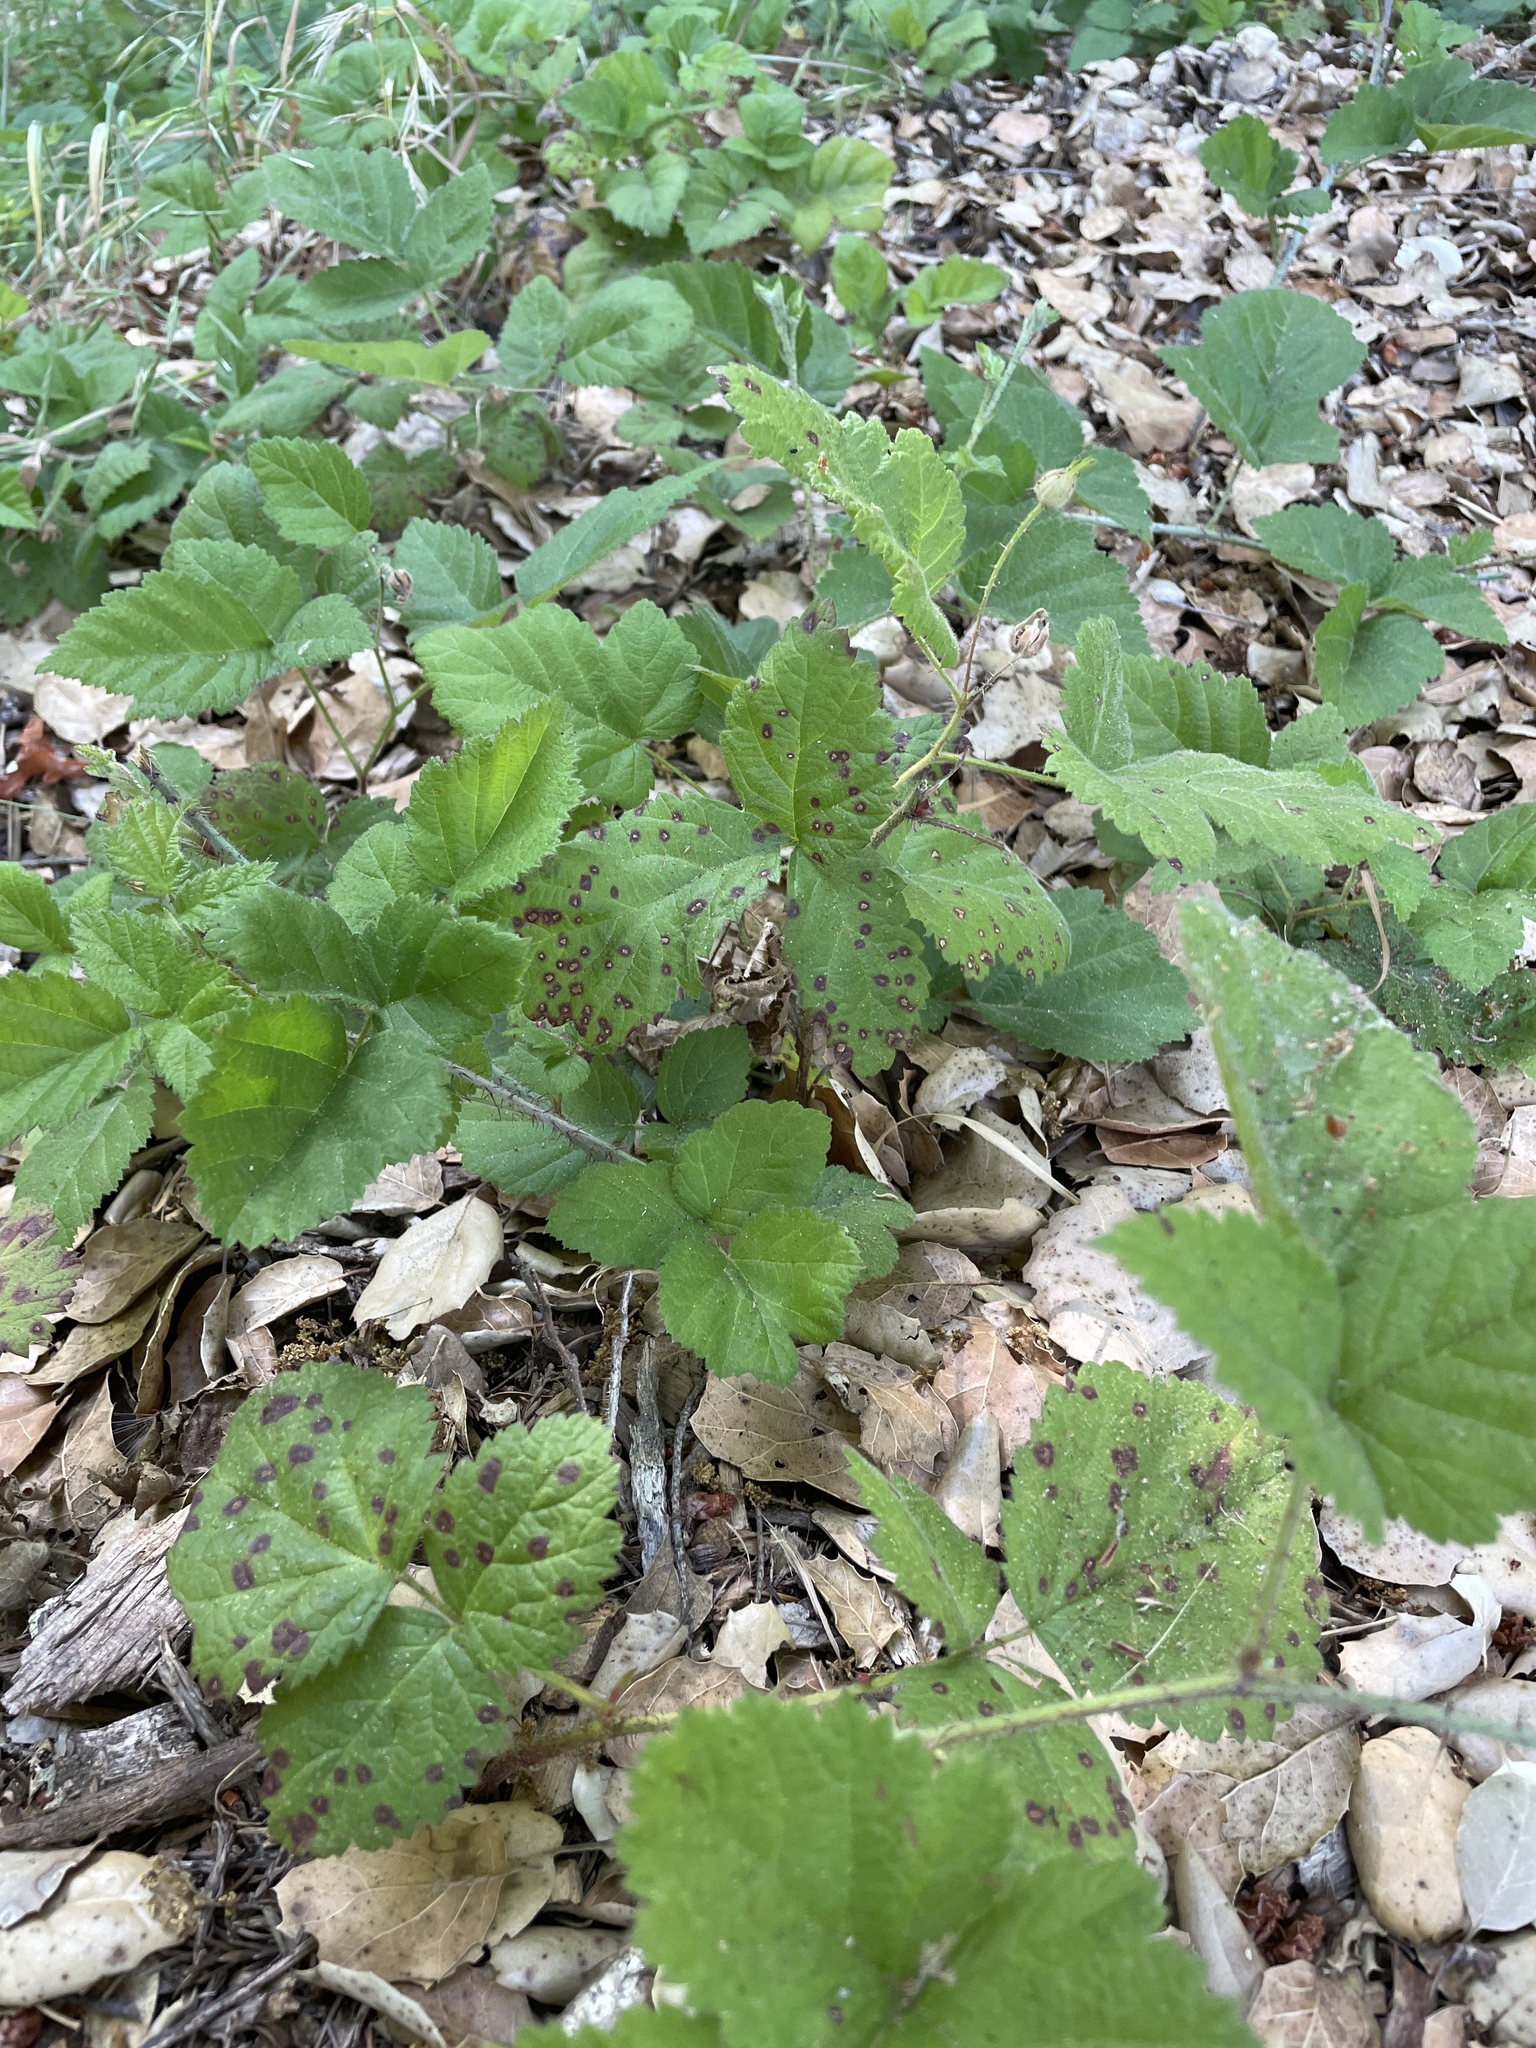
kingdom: Plantae
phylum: Tracheophyta
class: Magnoliopsida
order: Rosales
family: Rosaceae
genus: Rubus
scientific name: Rubus ursinus
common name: Pacific blackberry
